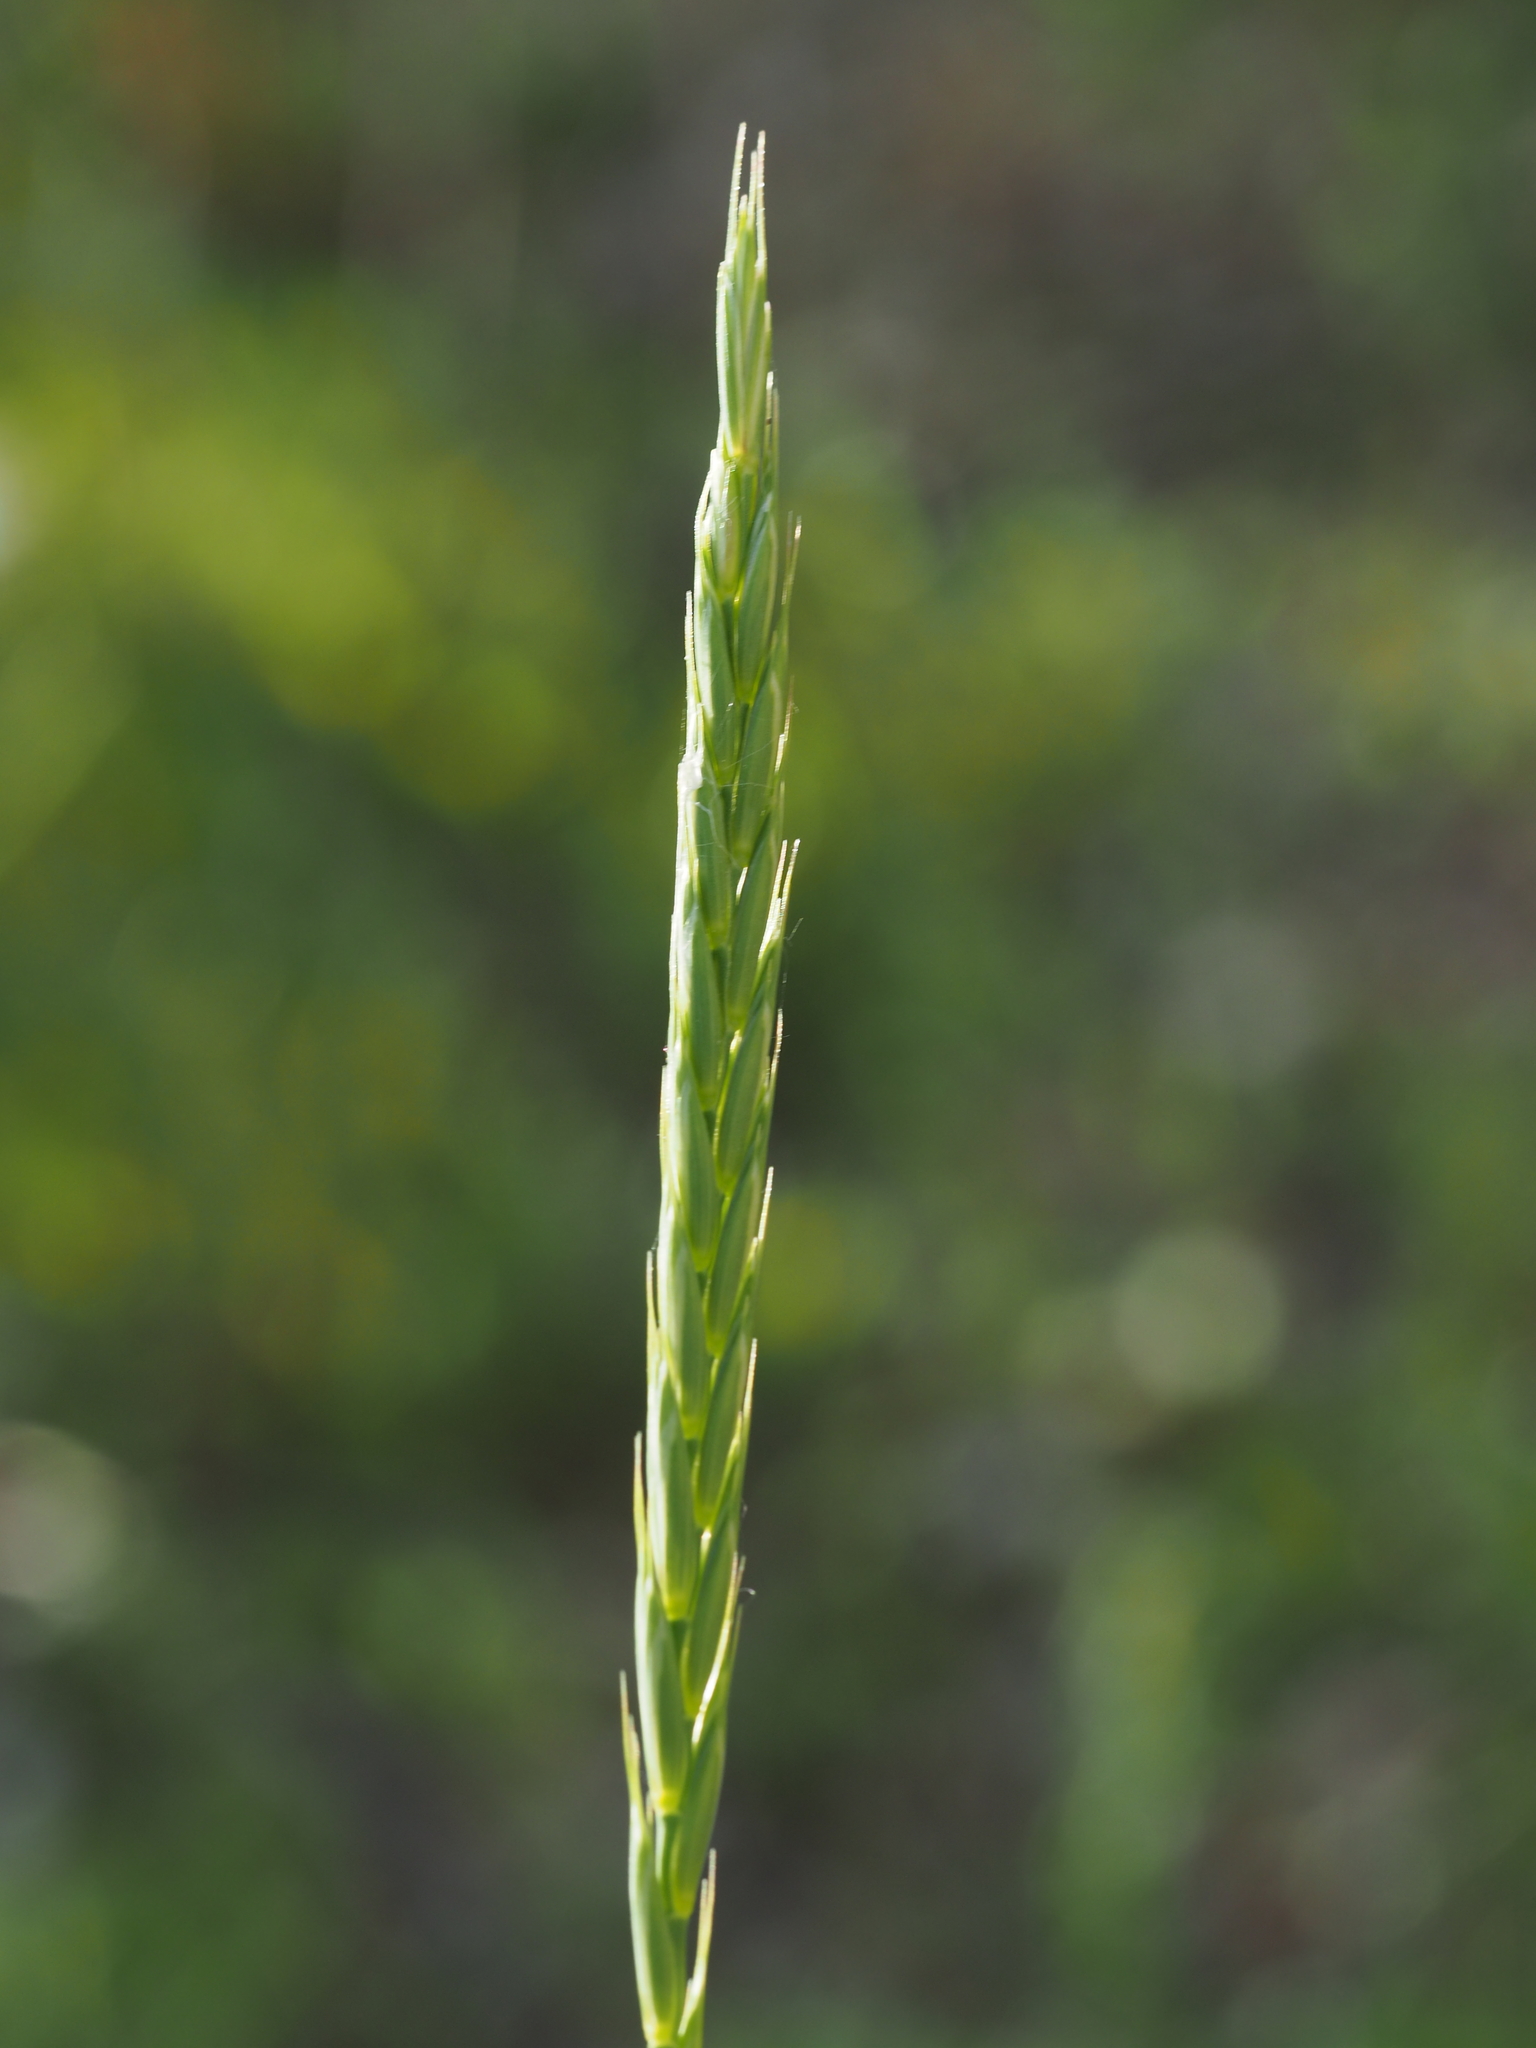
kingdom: Plantae
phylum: Tracheophyta
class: Liliopsida
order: Poales
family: Poaceae
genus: Elymus
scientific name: Elymus repens
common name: Quackgrass
